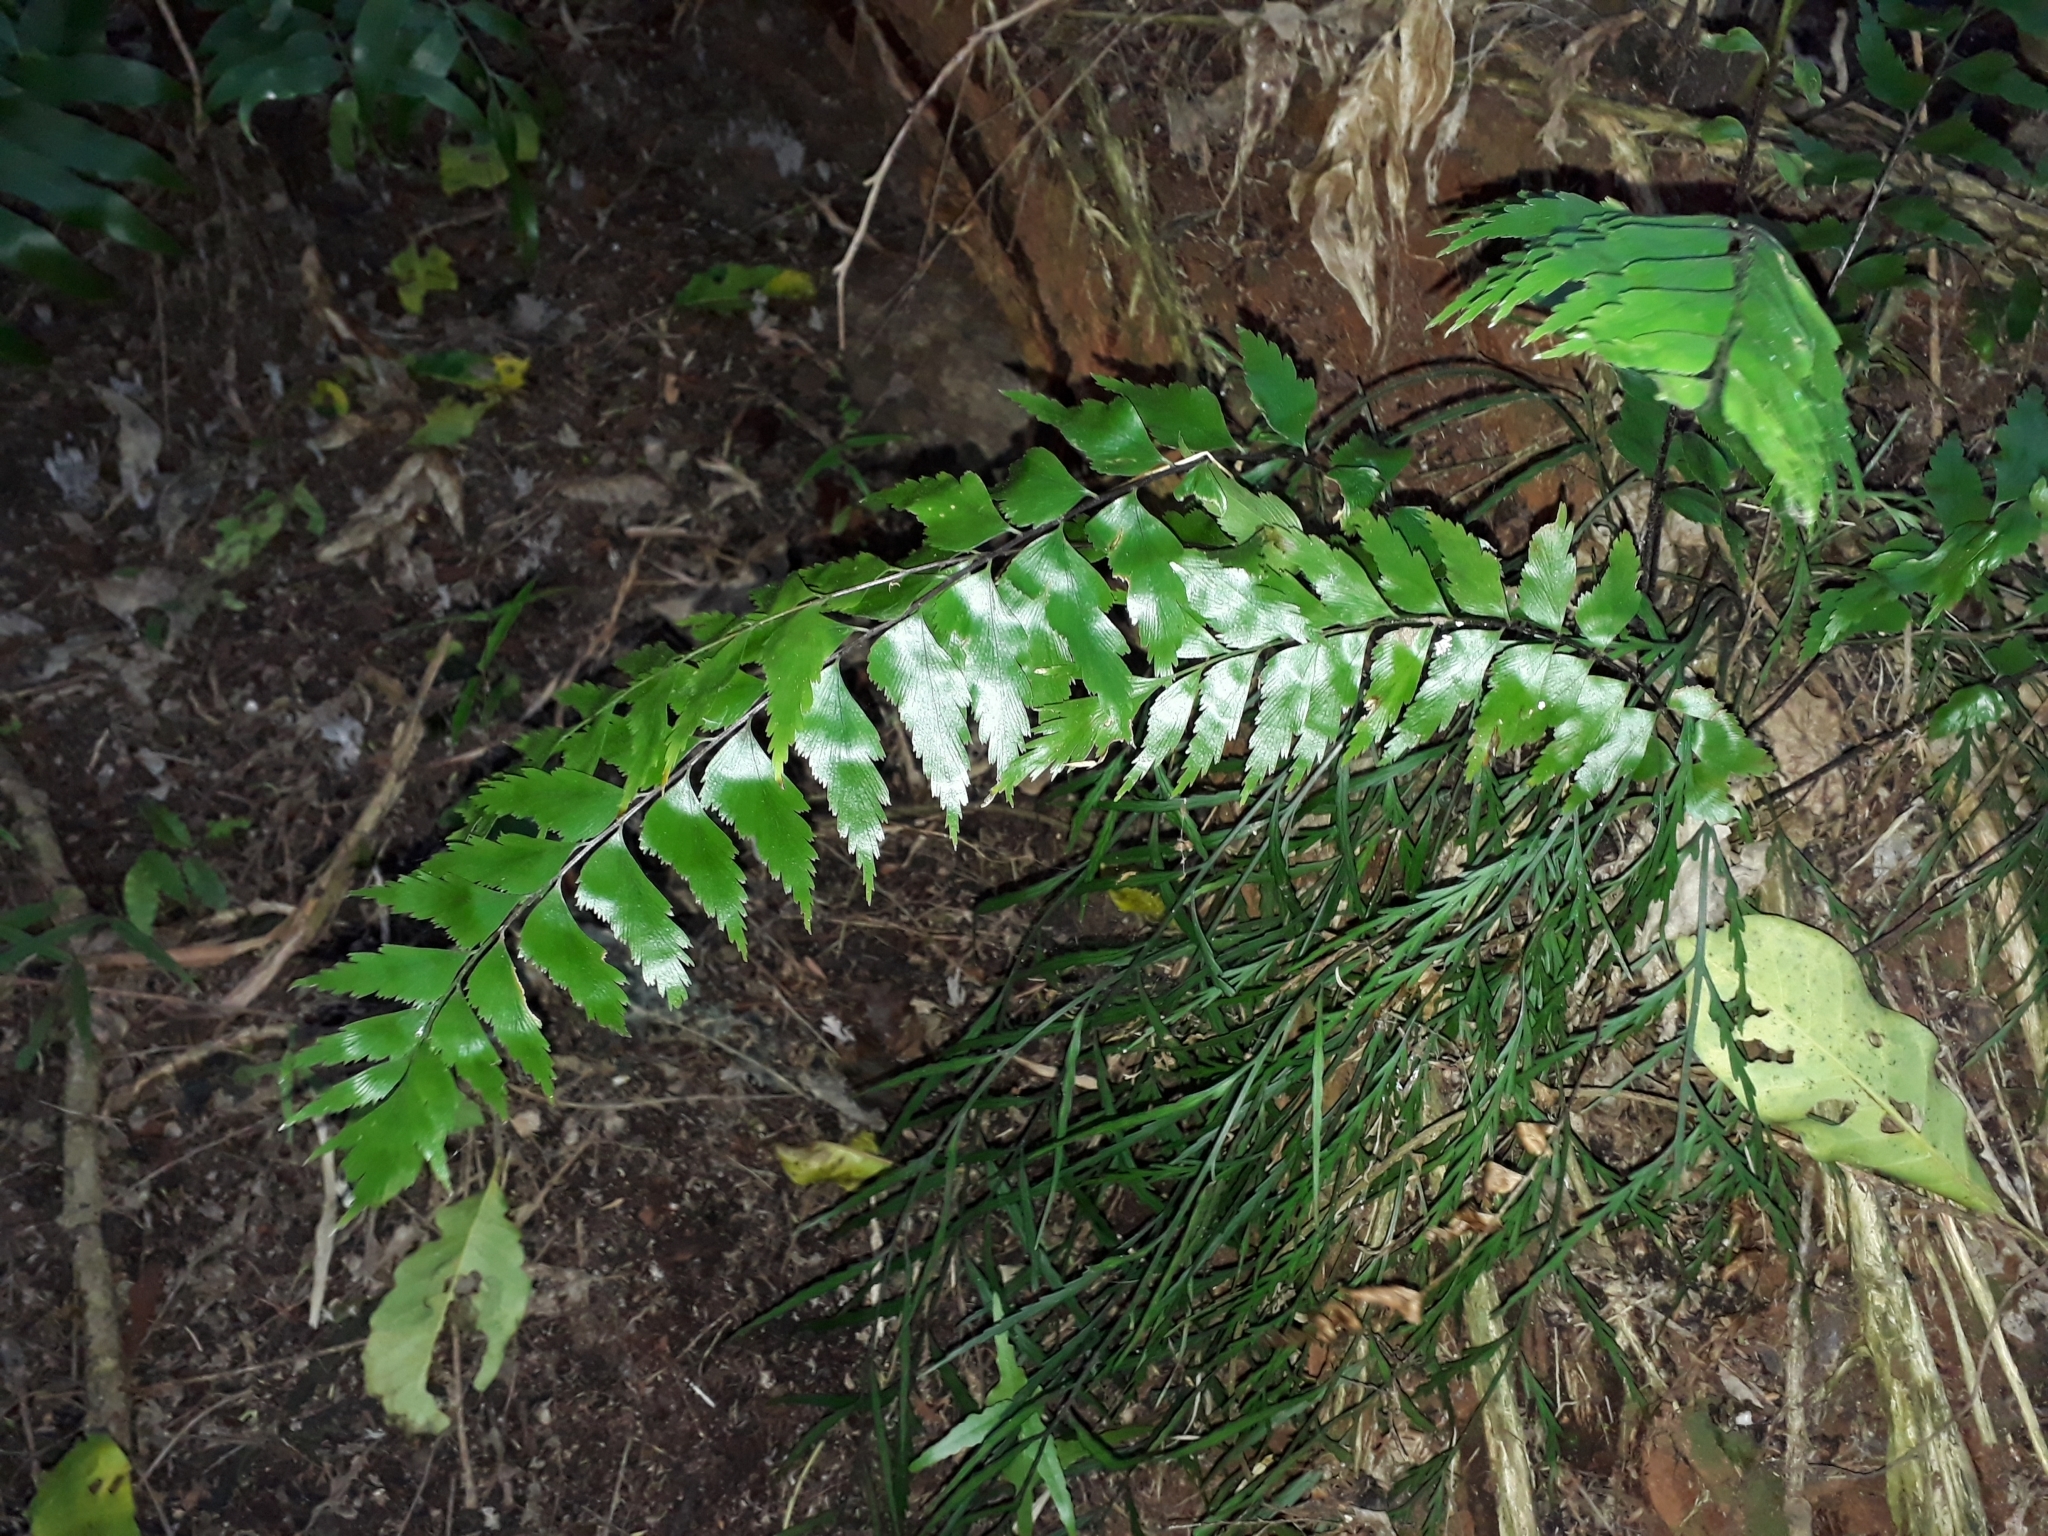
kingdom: Plantae
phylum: Tracheophyta
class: Polypodiopsida
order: Polypodiales
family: Aspleniaceae
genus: Asplenium
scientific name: Asplenium polyodon
